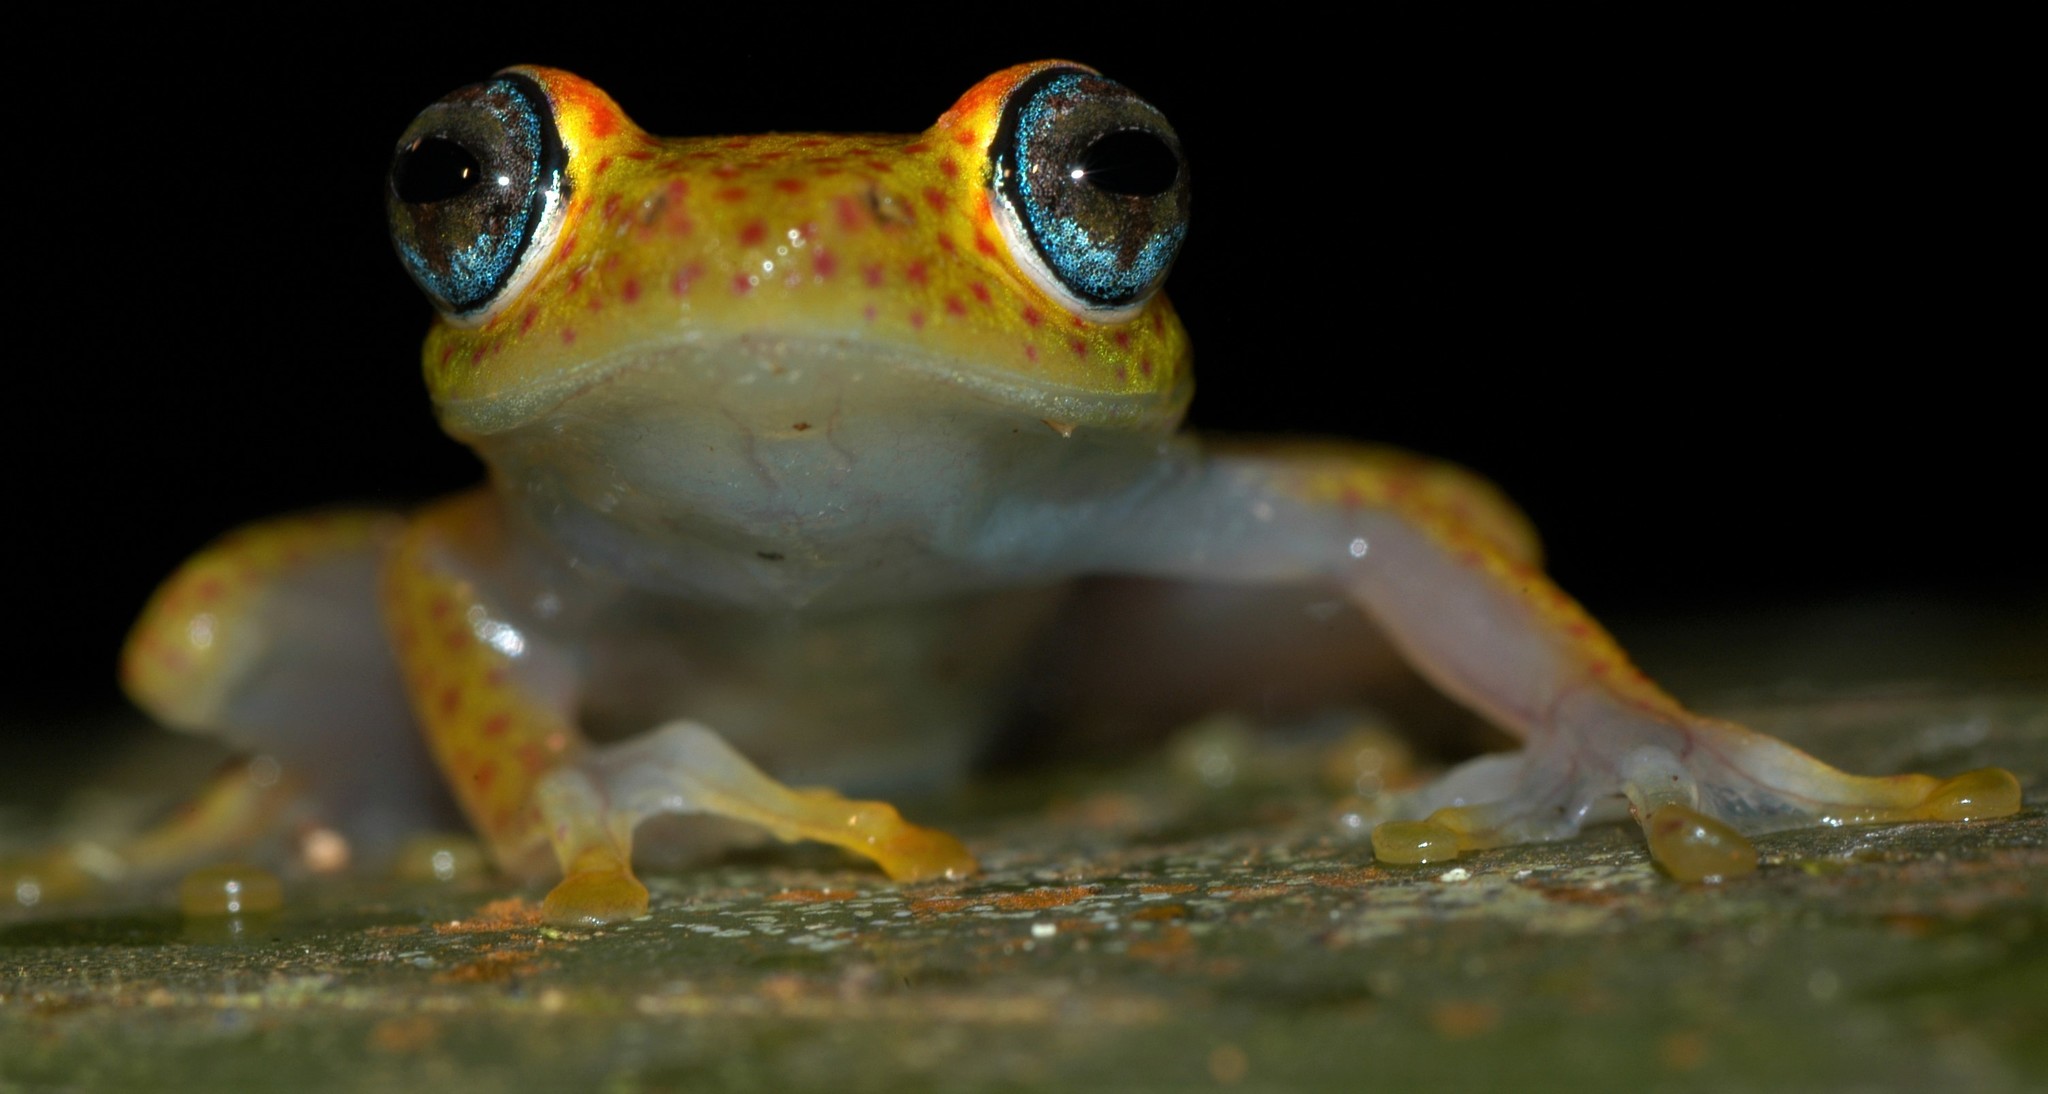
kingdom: Animalia
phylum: Chordata
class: Amphibia
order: Anura
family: Mantellidae
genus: Boophis
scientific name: Boophis tasymena
